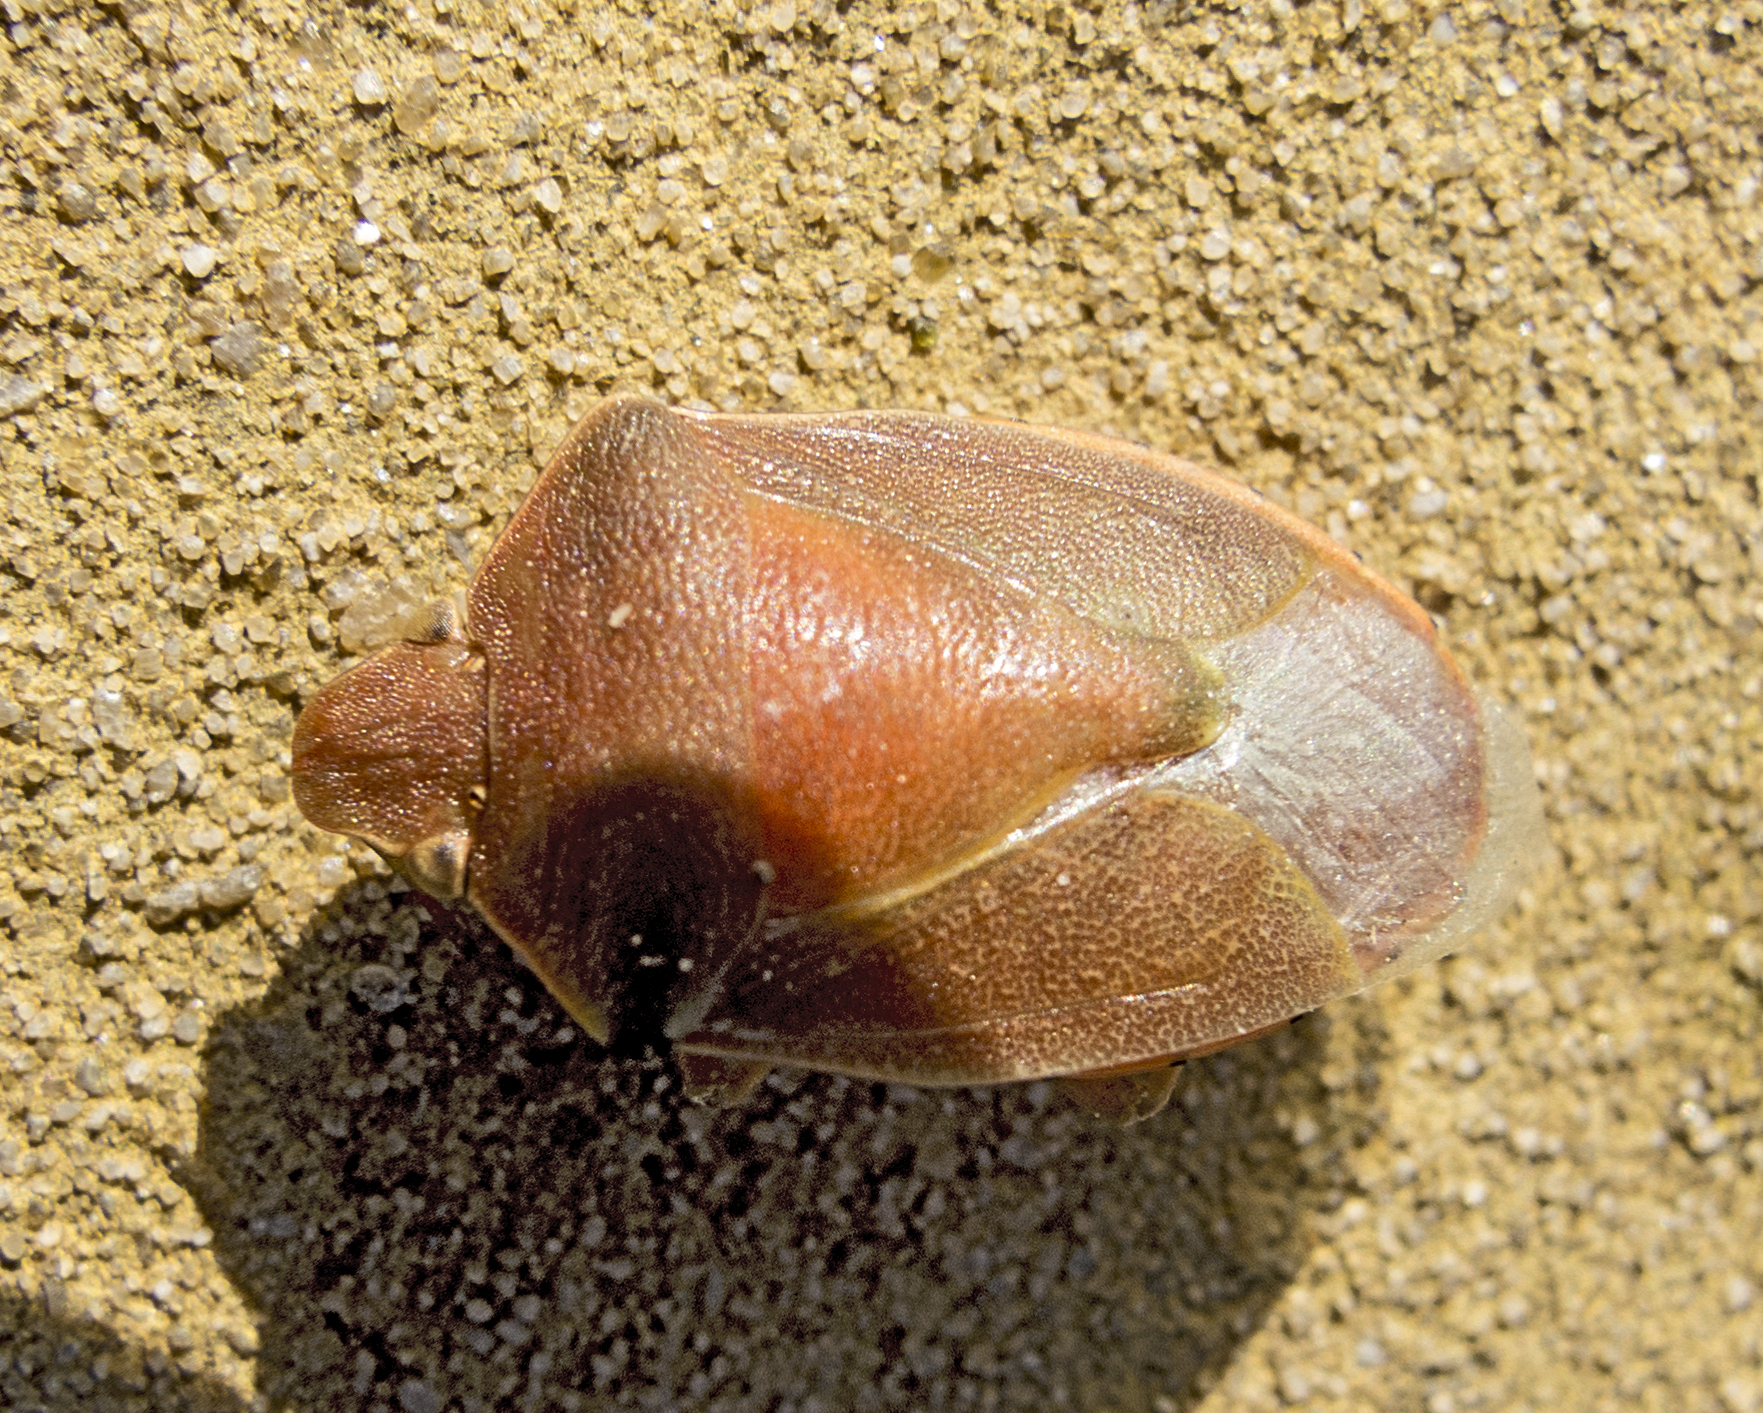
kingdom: Animalia
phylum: Arthropoda
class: Insecta
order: Hemiptera
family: Pentatomidae
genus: Acrosternum
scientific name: Acrosternum heegeri
